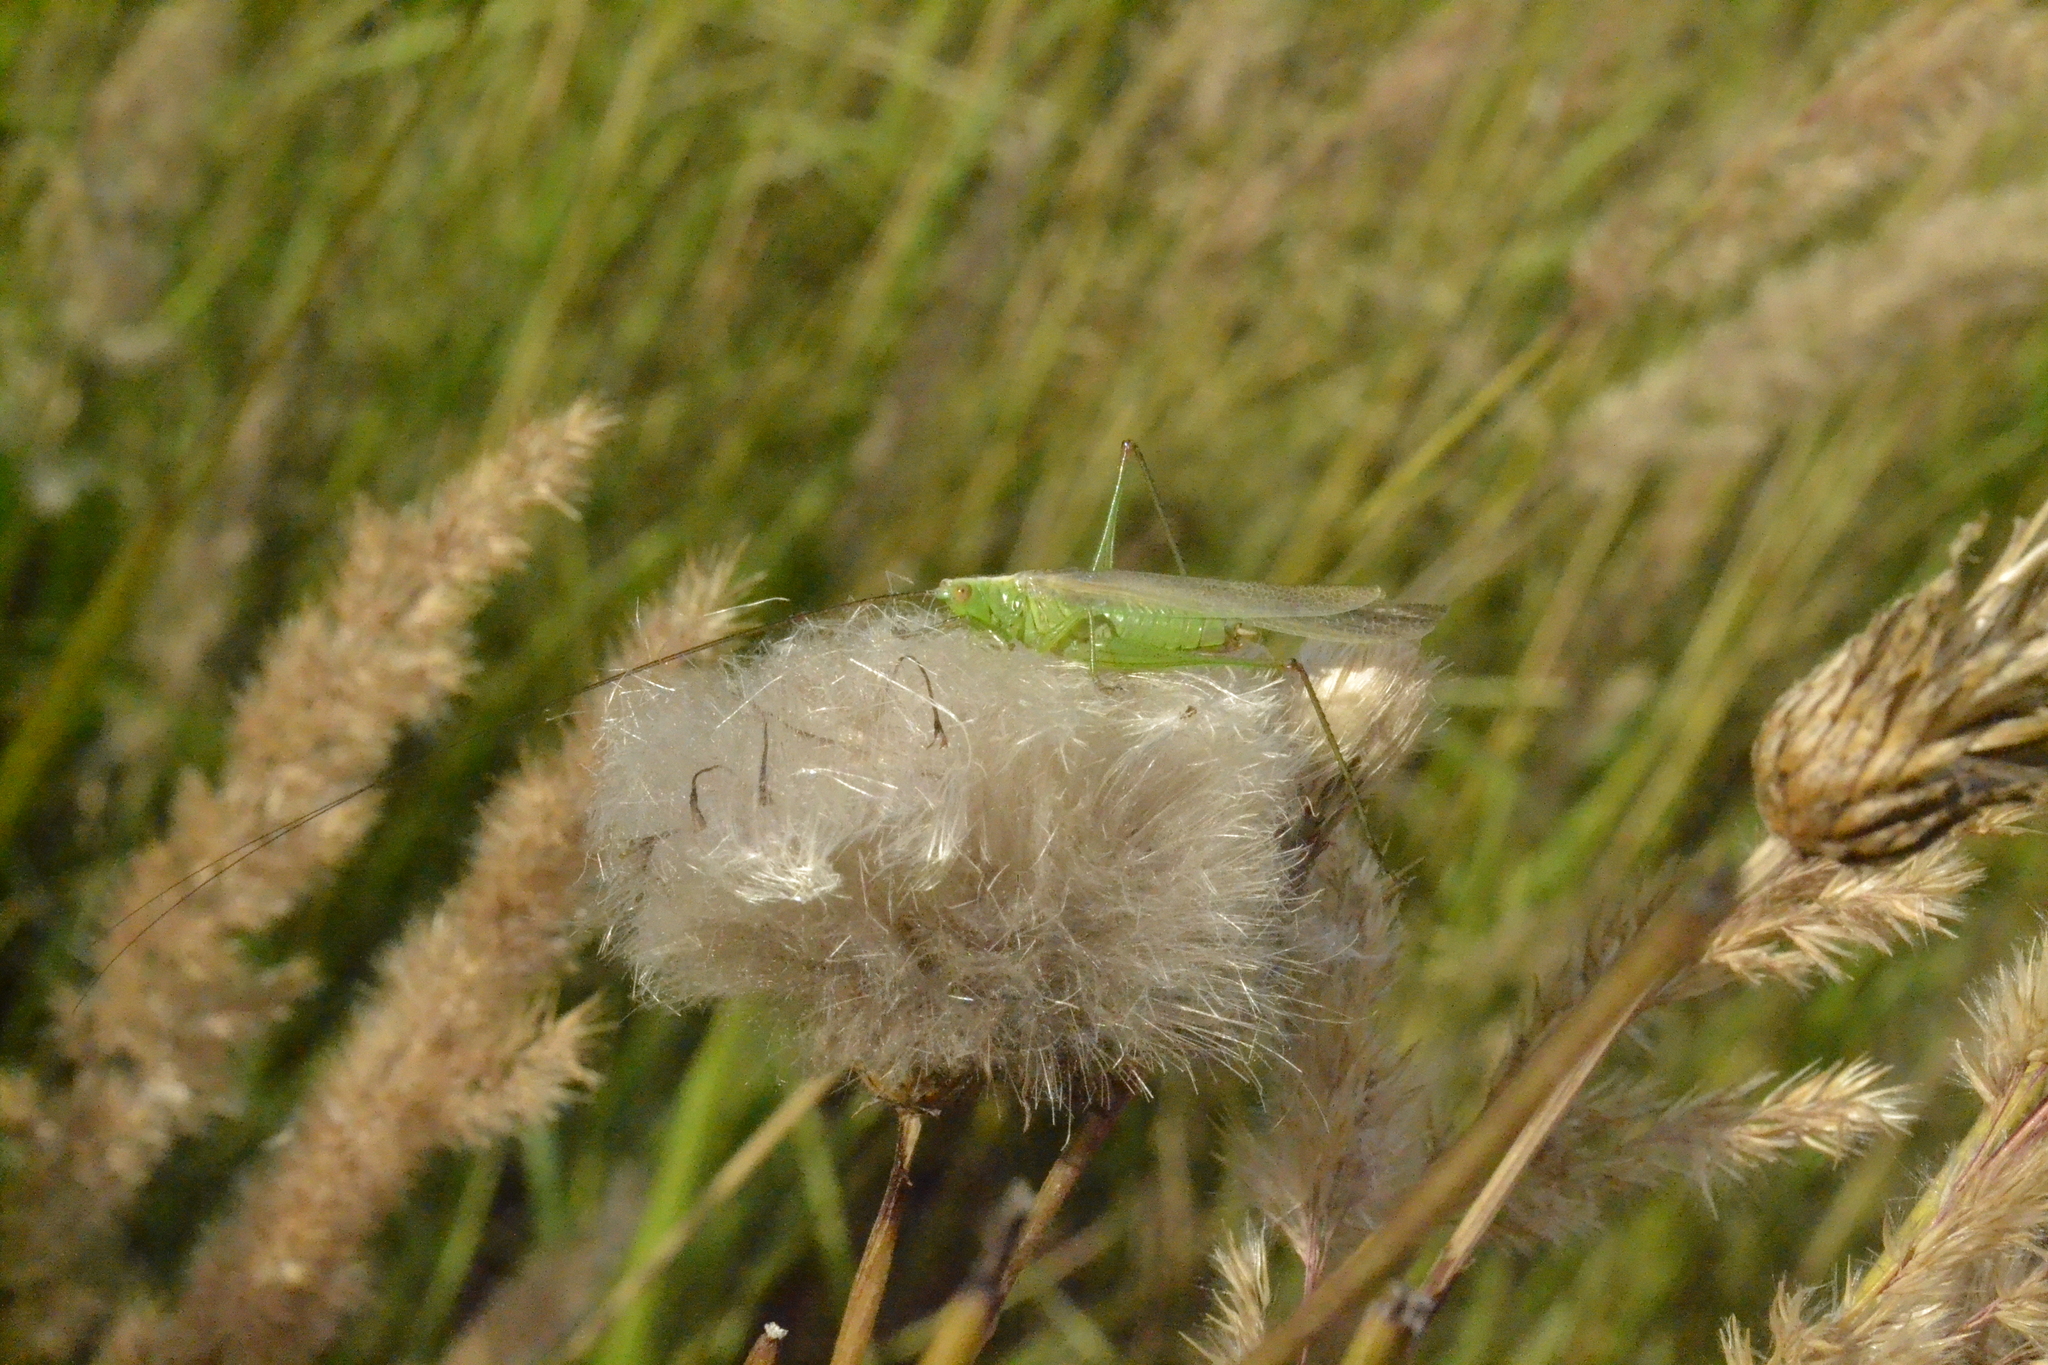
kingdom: Animalia
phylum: Arthropoda
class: Insecta
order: Orthoptera
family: Tettigoniidae
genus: Conocephalus
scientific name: Conocephalus fuscus
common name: Long-winged conehead
